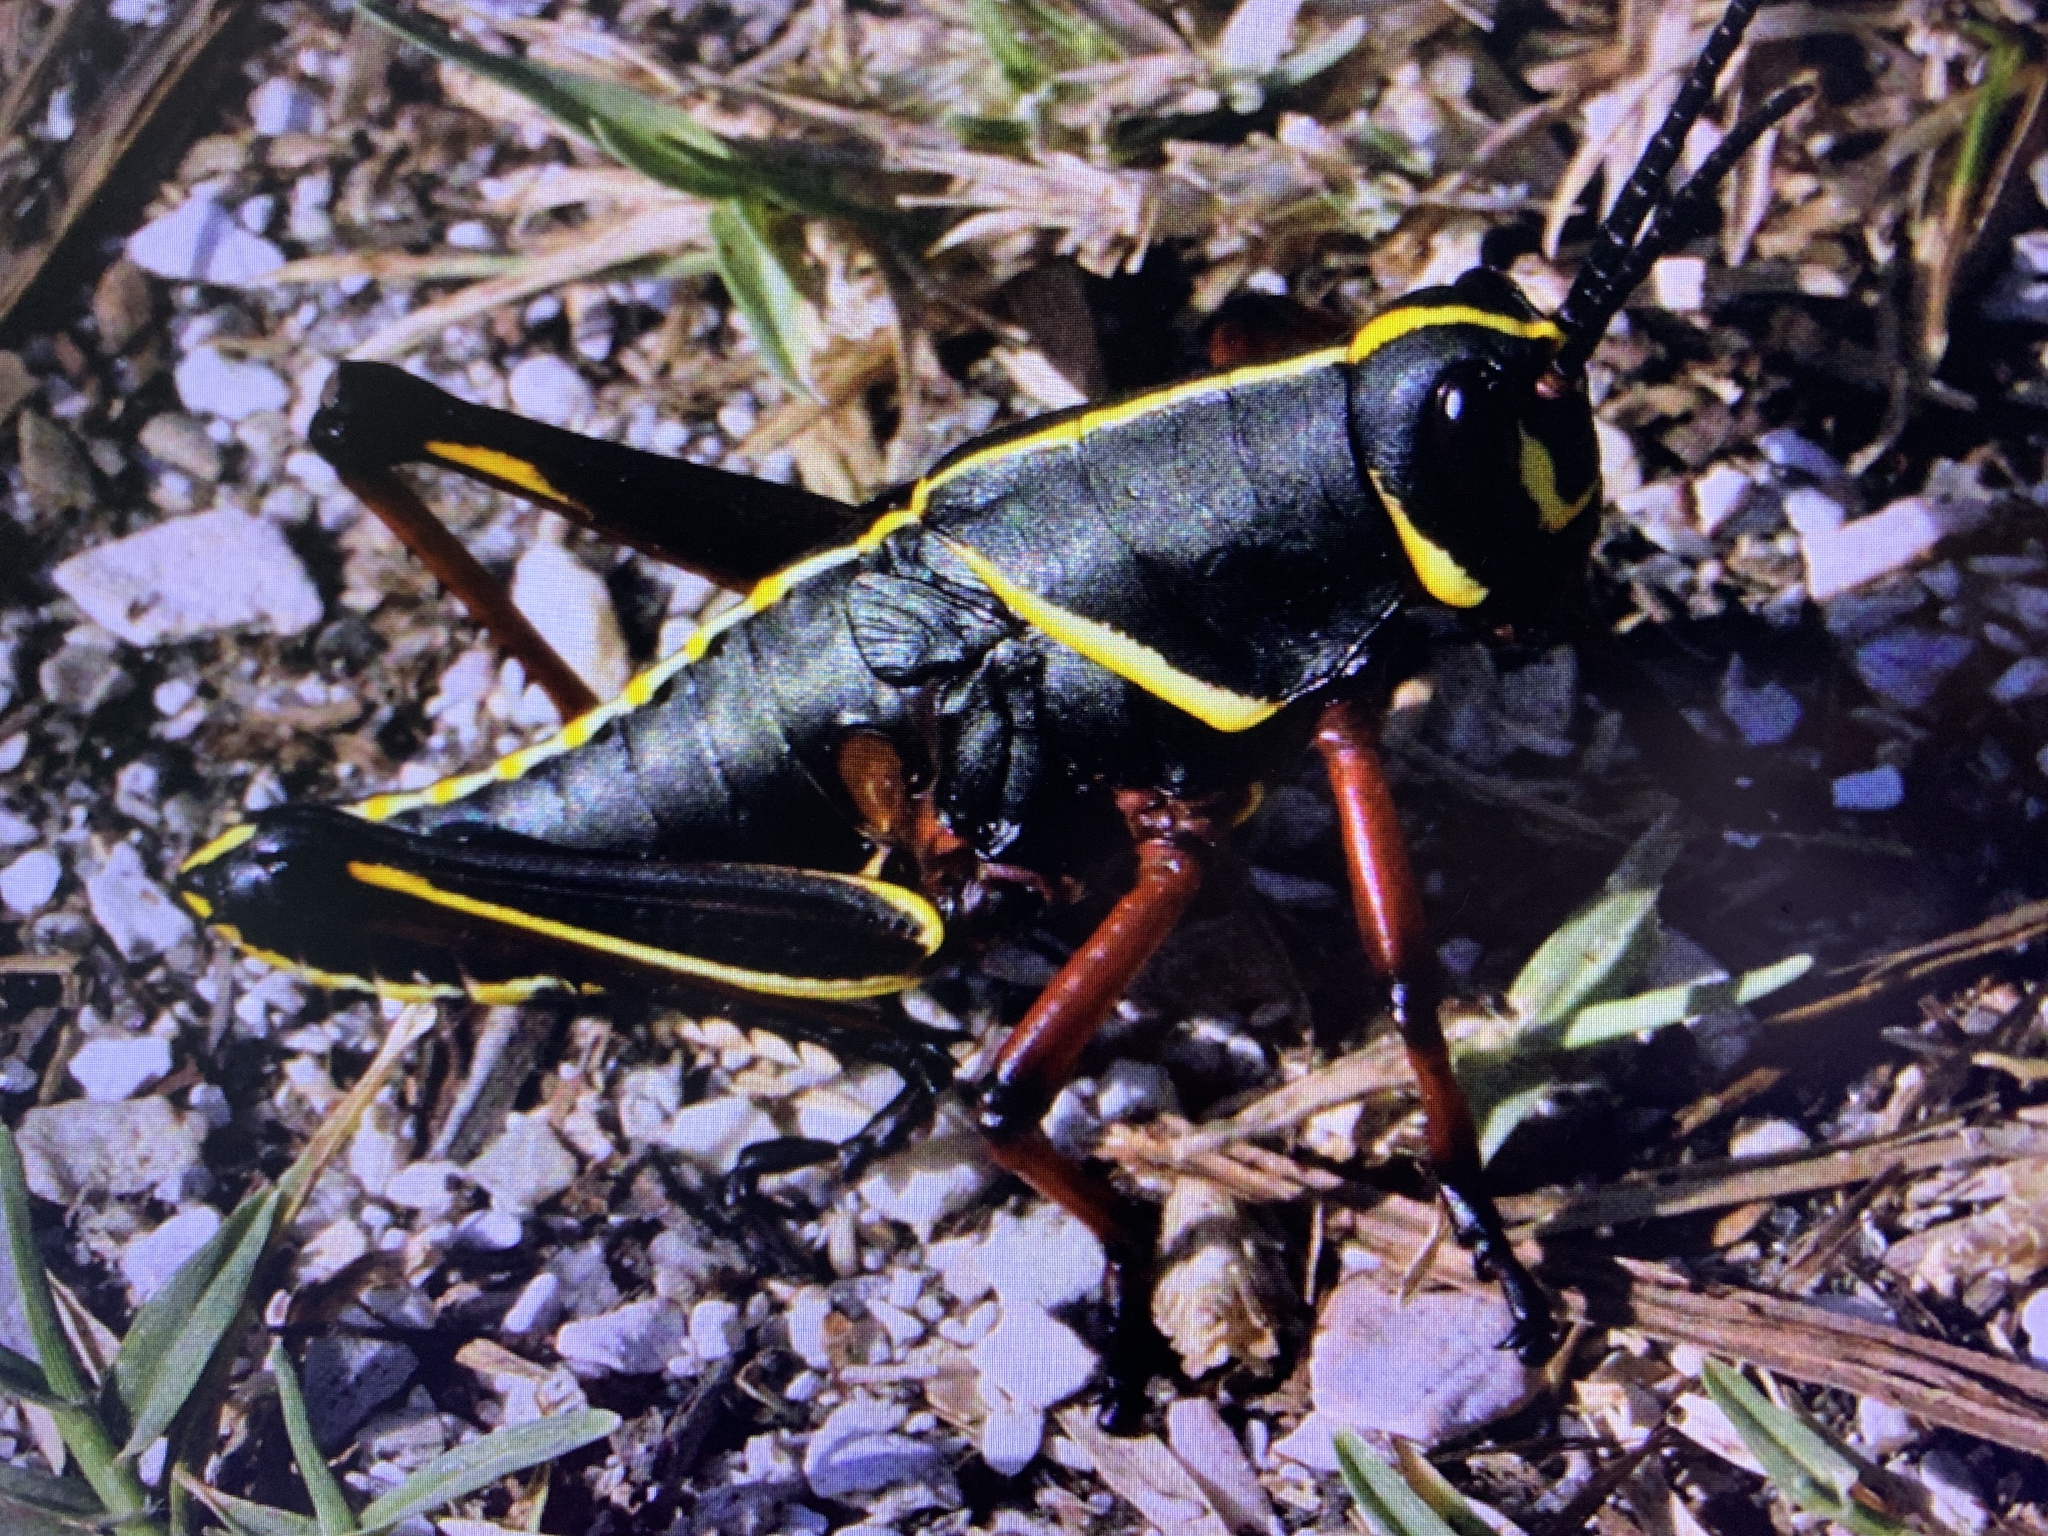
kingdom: Animalia
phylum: Arthropoda
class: Insecta
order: Orthoptera
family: Romaleidae
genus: Romalea
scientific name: Romalea microptera
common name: Eastern lubber grasshopper
